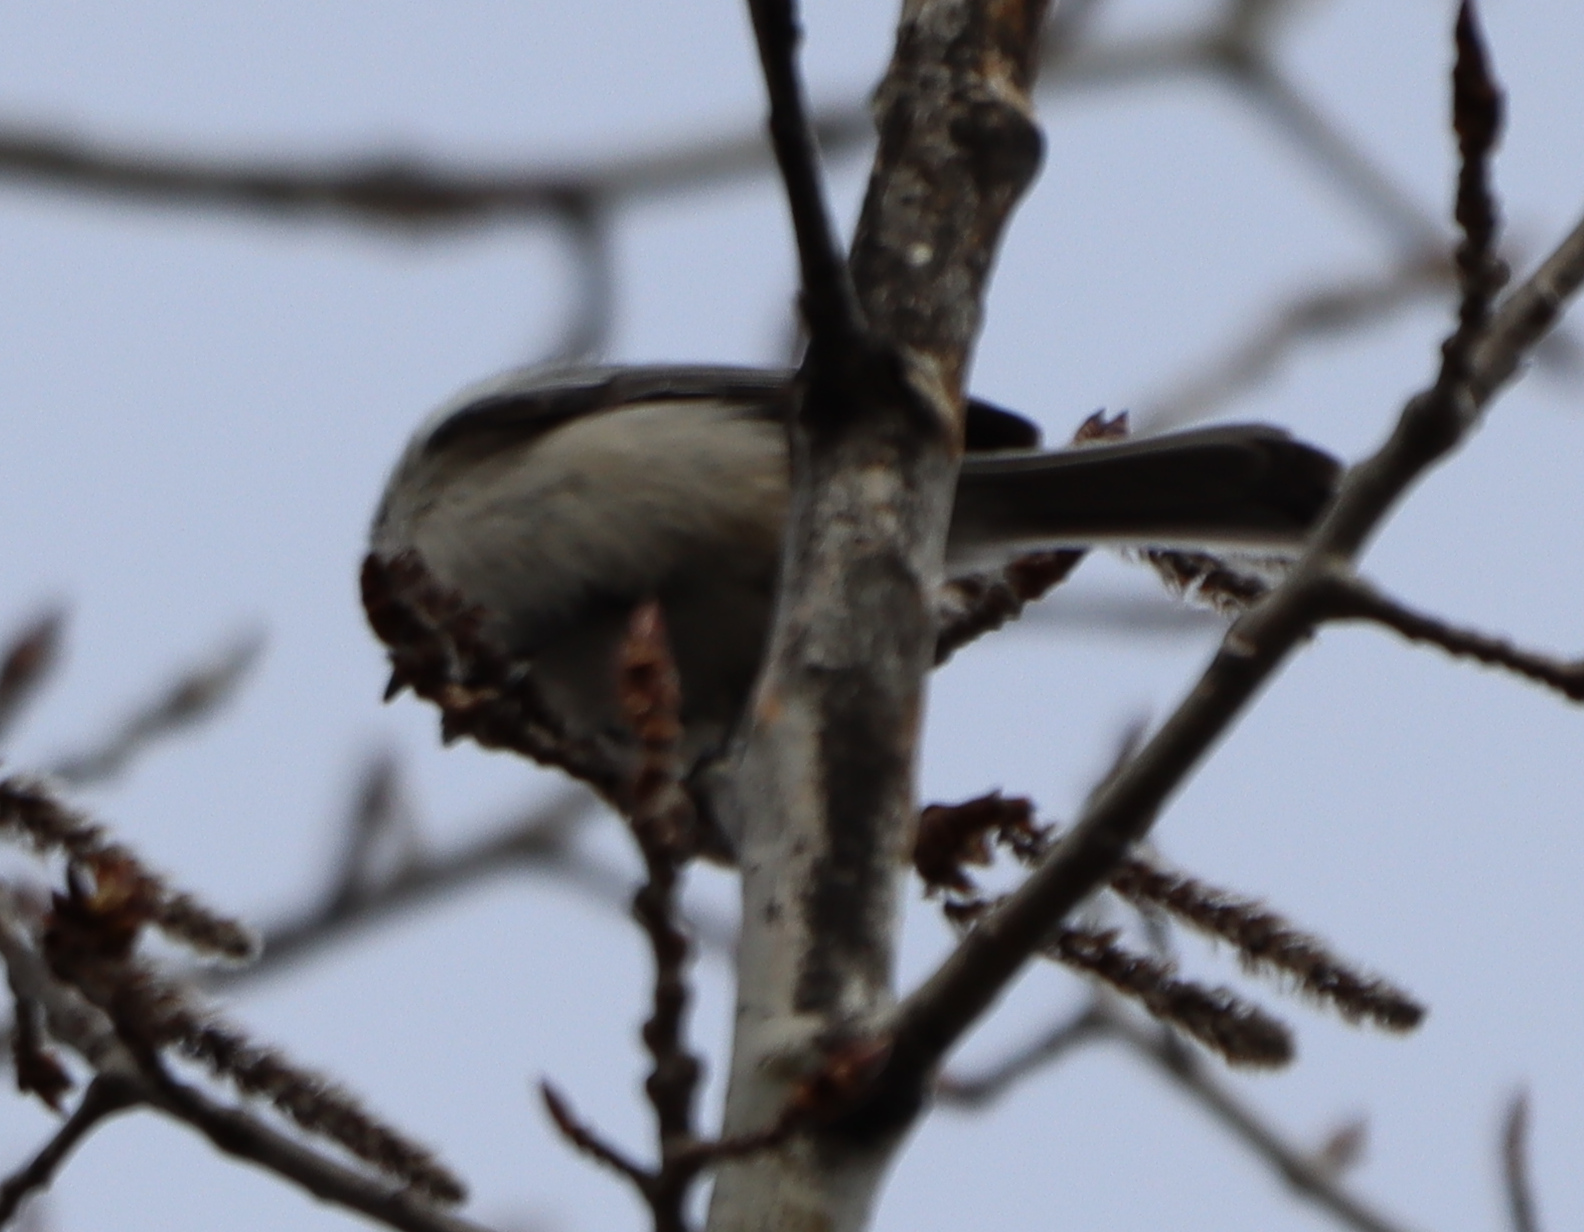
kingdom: Animalia
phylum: Chordata
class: Aves
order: Passeriformes
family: Paridae
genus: Poecile
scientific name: Poecile atricapillus
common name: Black-capped chickadee
